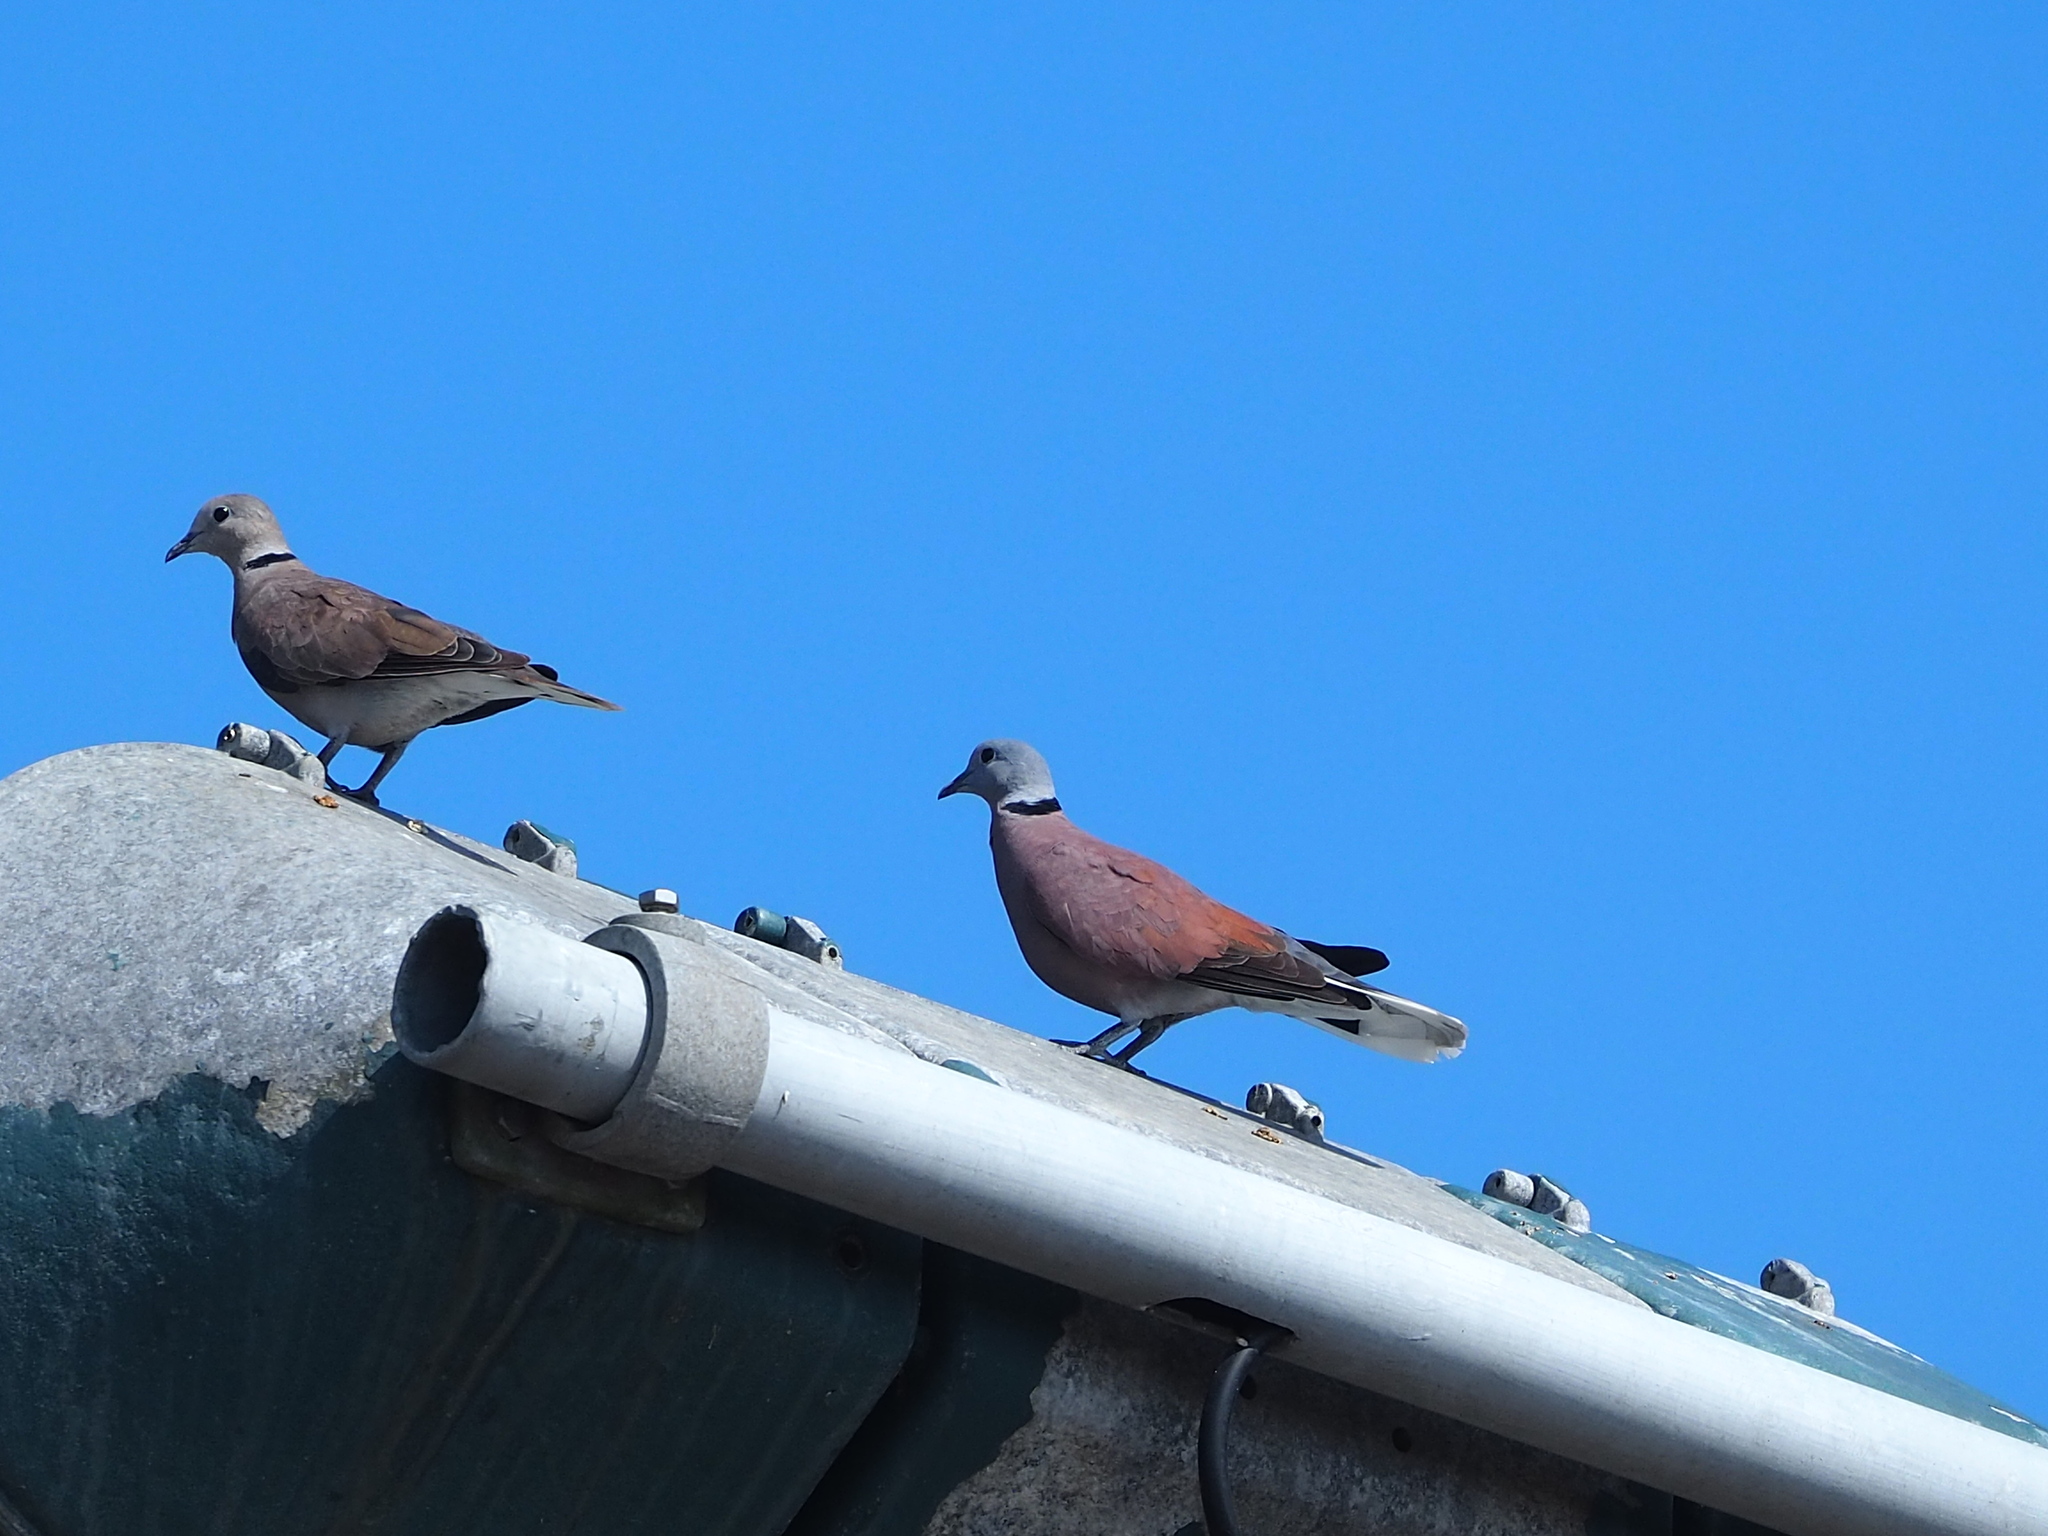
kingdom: Animalia
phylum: Chordata
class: Aves
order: Columbiformes
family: Columbidae
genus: Streptopelia
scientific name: Streptopelia tranquebarica
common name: Red turtle dove
